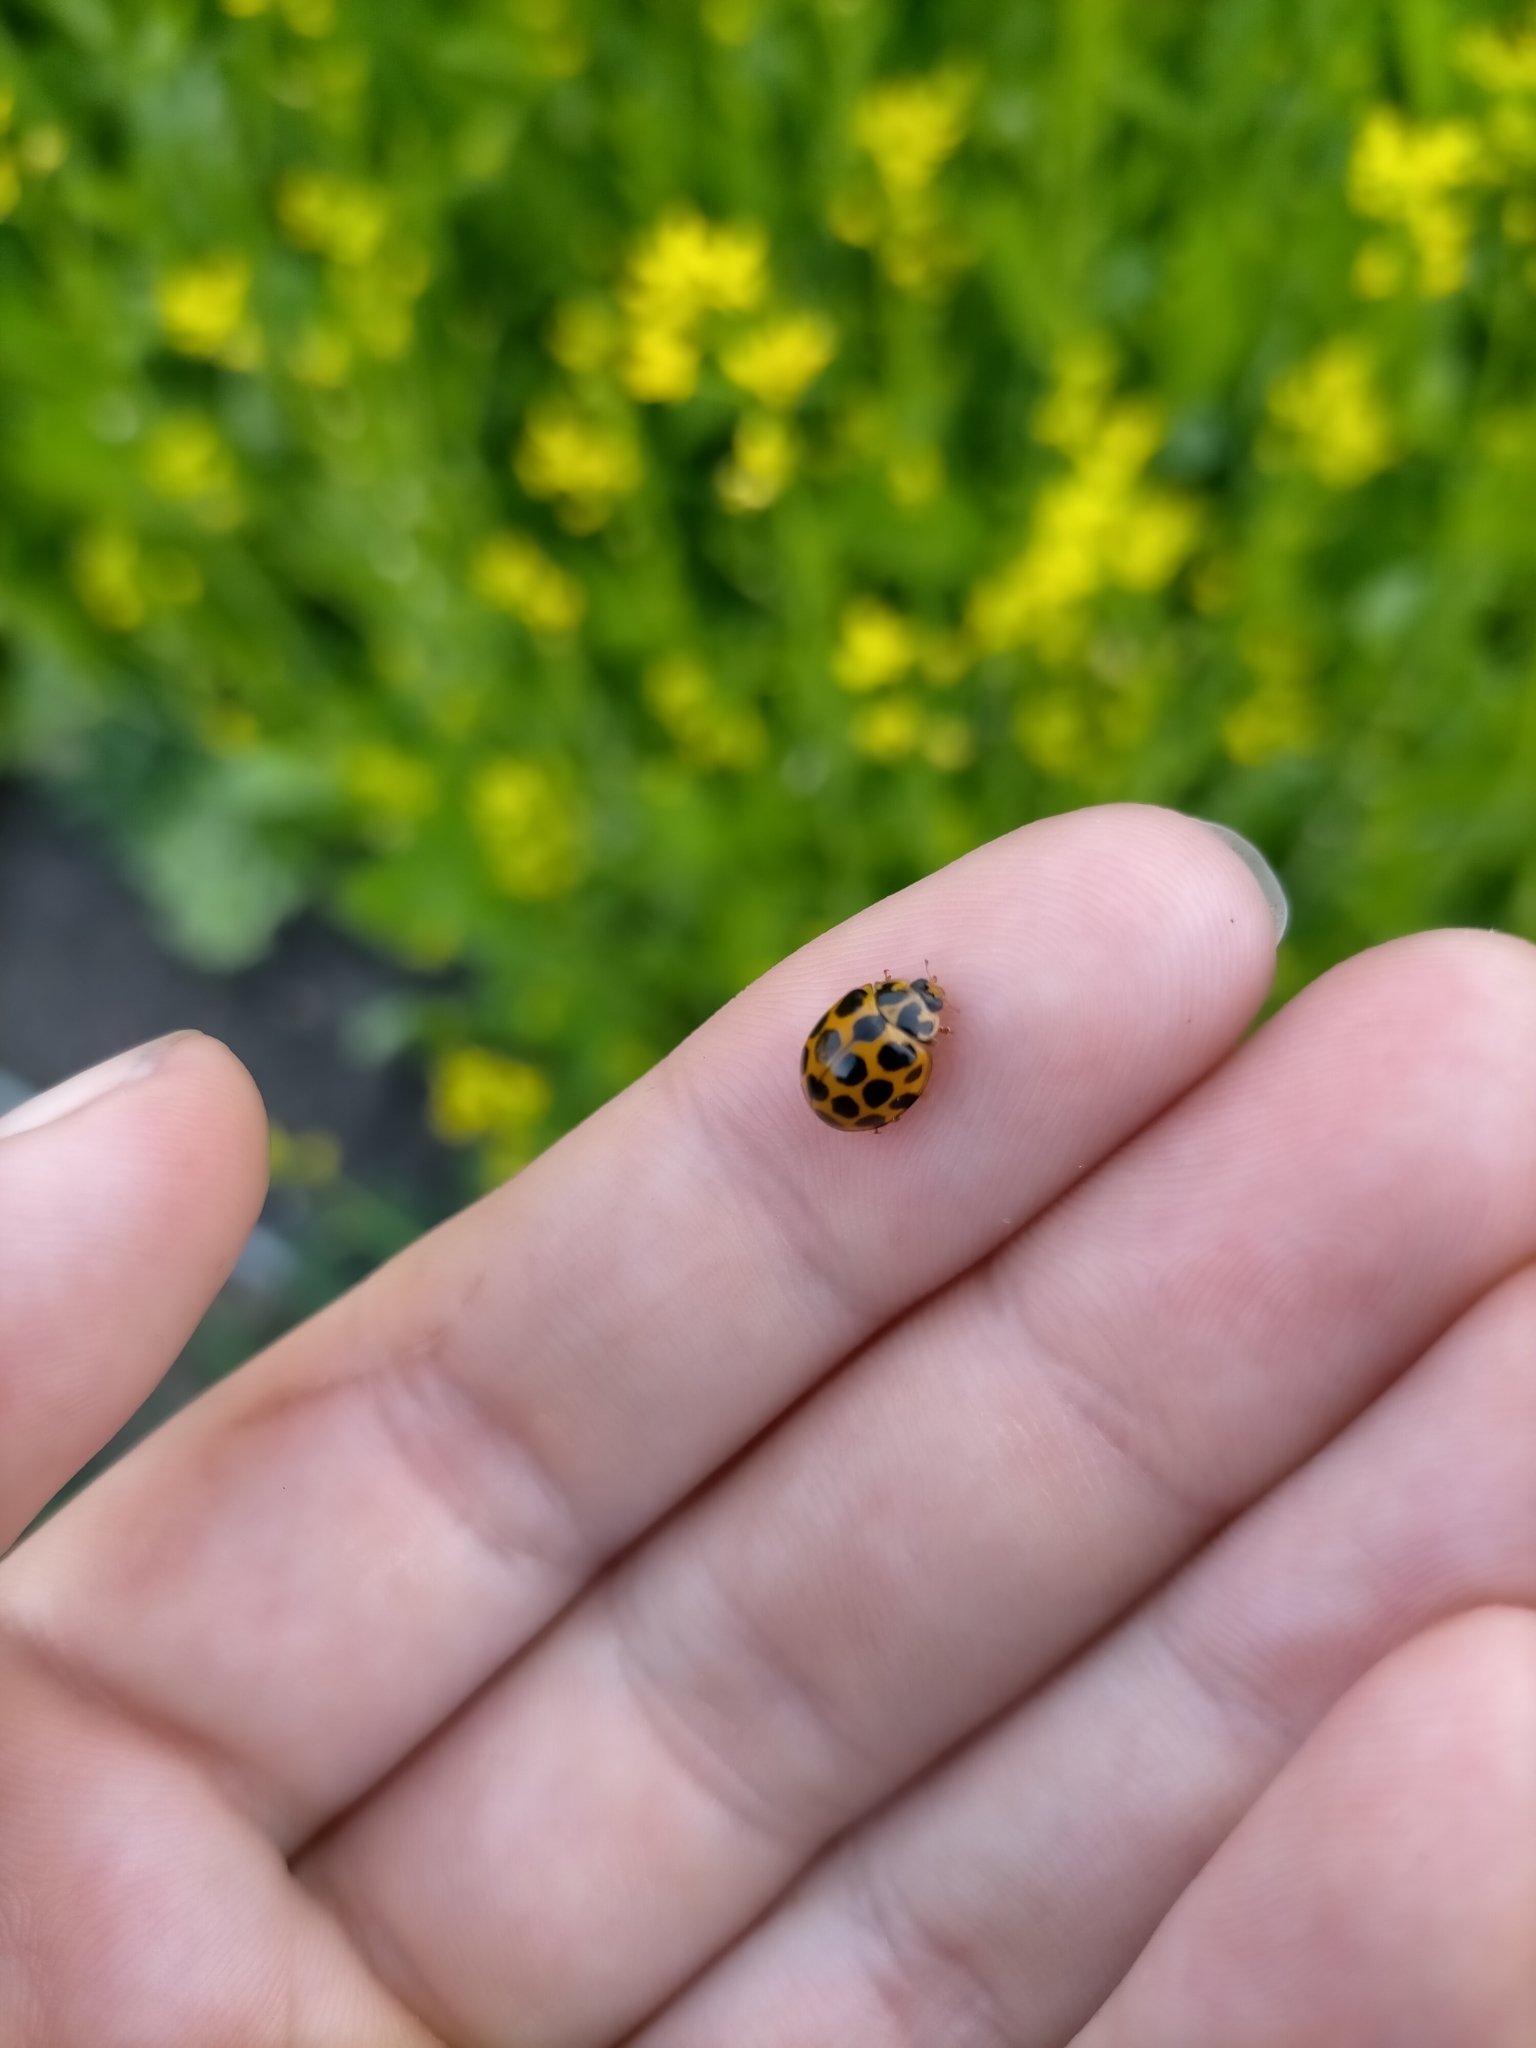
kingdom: Animalia
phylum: Arthropoda
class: Insecta
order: Coleoptera
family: Coccinellidae
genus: Harmonia
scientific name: Harmonia conformis
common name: Common spotted ladybird beetle
